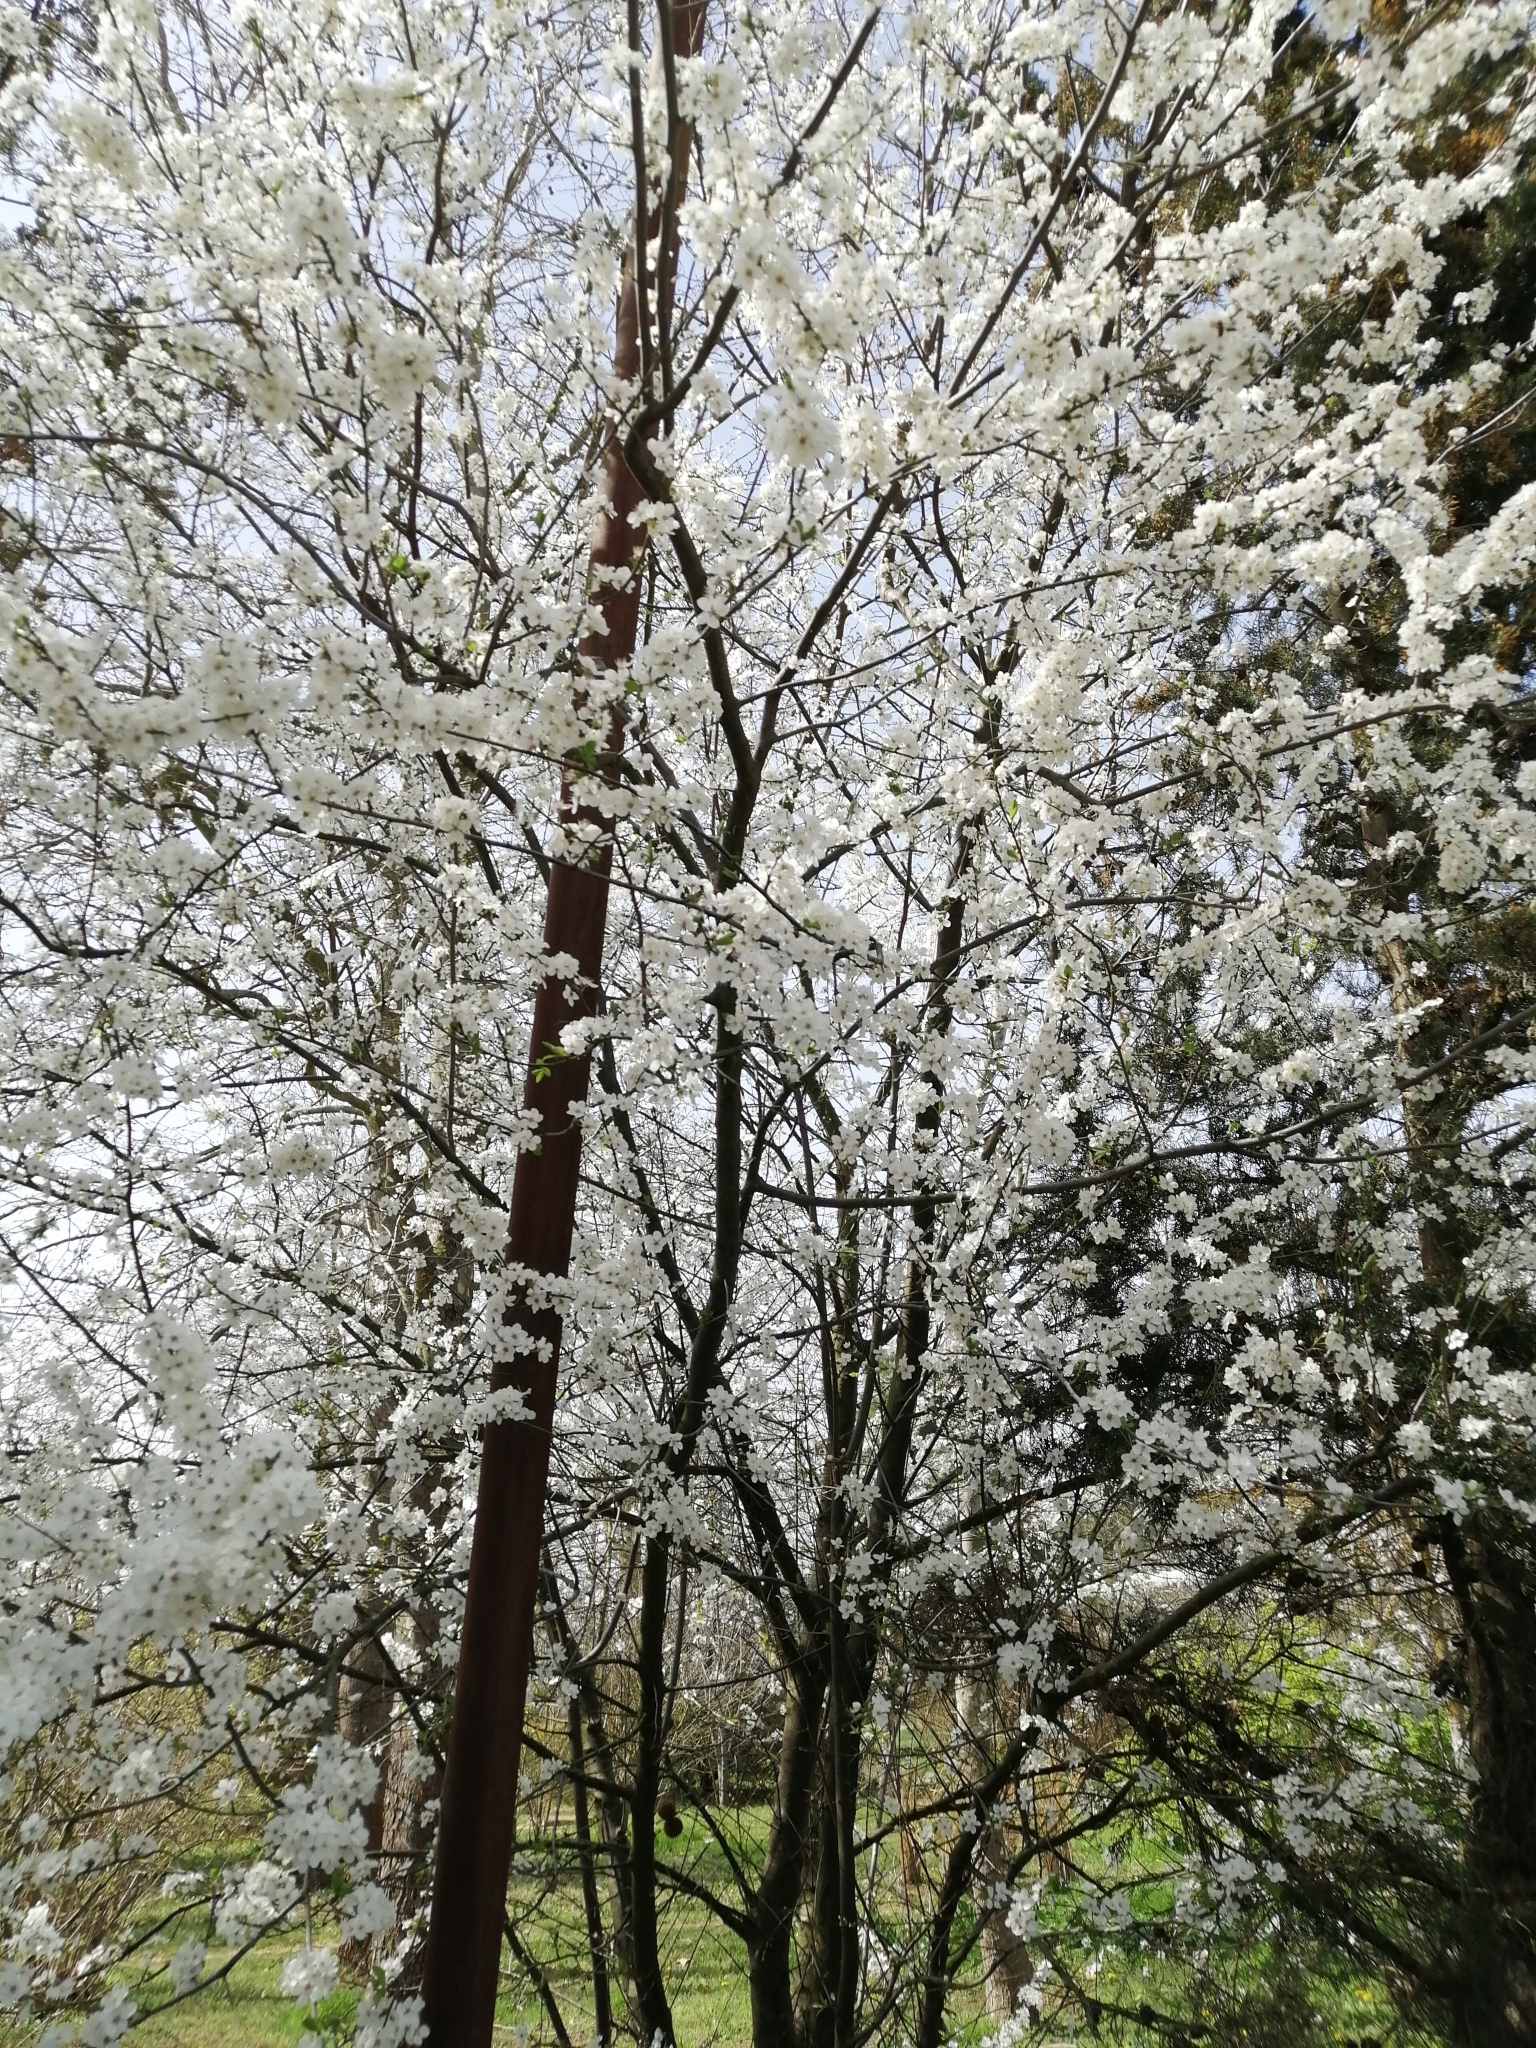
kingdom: Plantae
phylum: Tracheophyta
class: Magnoliopsida
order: Rosales
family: Rosaceae
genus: Prunus
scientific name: Prunus cerasifera
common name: Cherry plum
